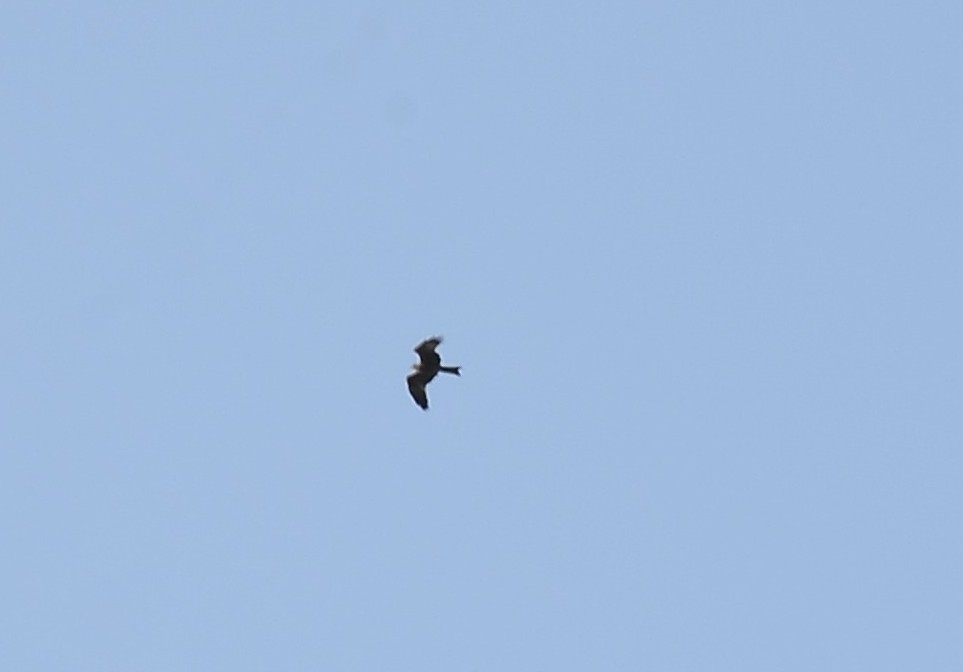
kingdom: Animalia
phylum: Chordata
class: Aves
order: Accipitriformes
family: Accipitridae
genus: Milvus
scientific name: Milvus migrans
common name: Black kite
